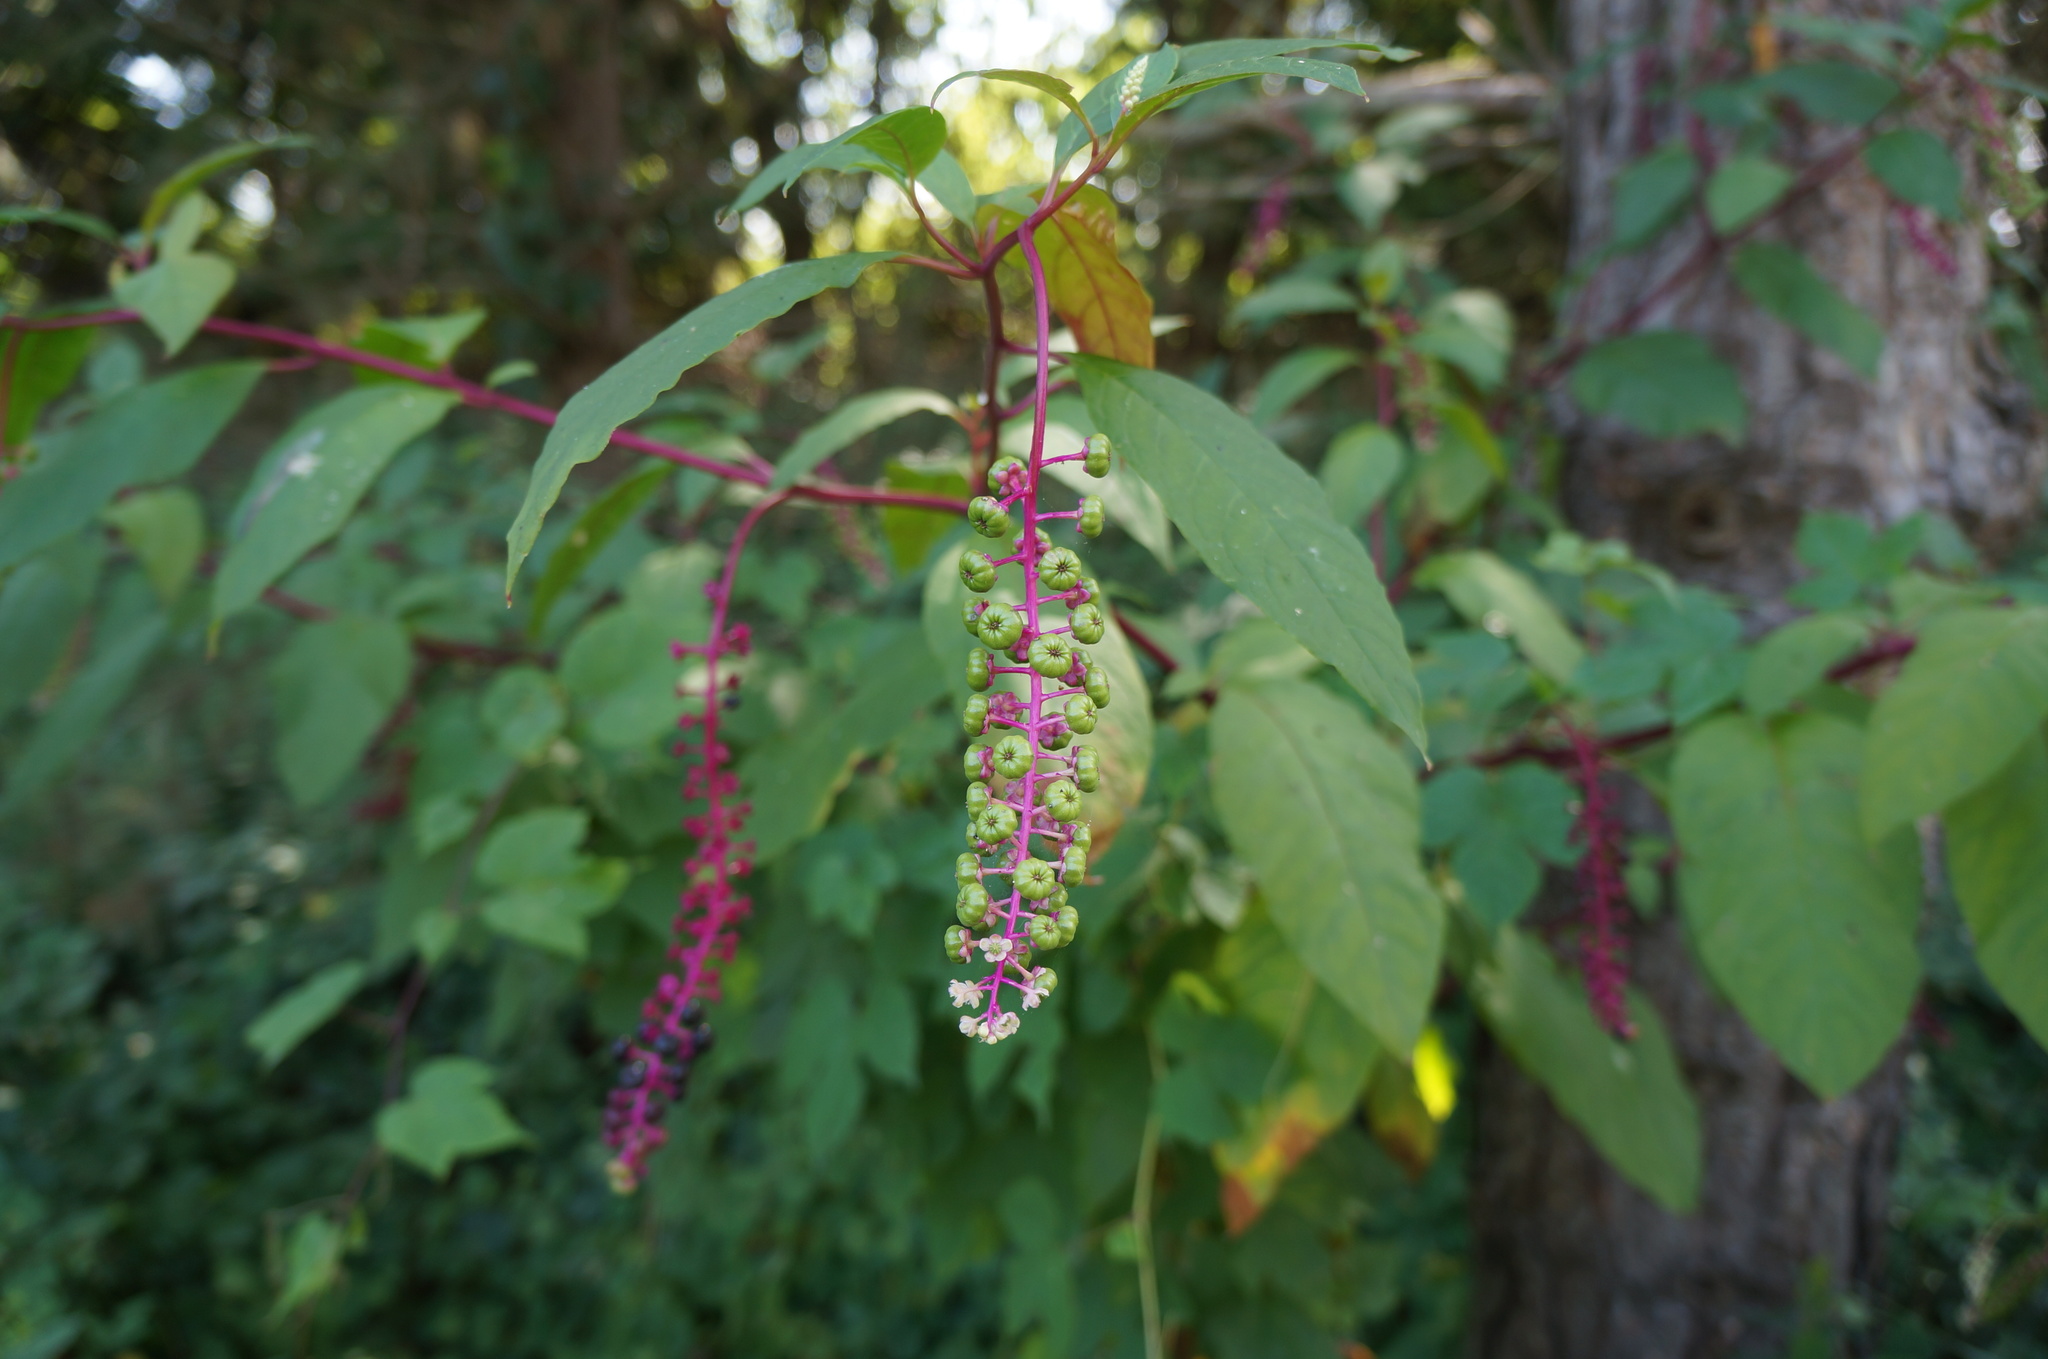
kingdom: Plantae
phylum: Tracheophyta
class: Magnoliopsida
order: Caryophyllales
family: Phytolaccaceae
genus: Phytolacca
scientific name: Phytolacca americana
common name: American pokeweed
